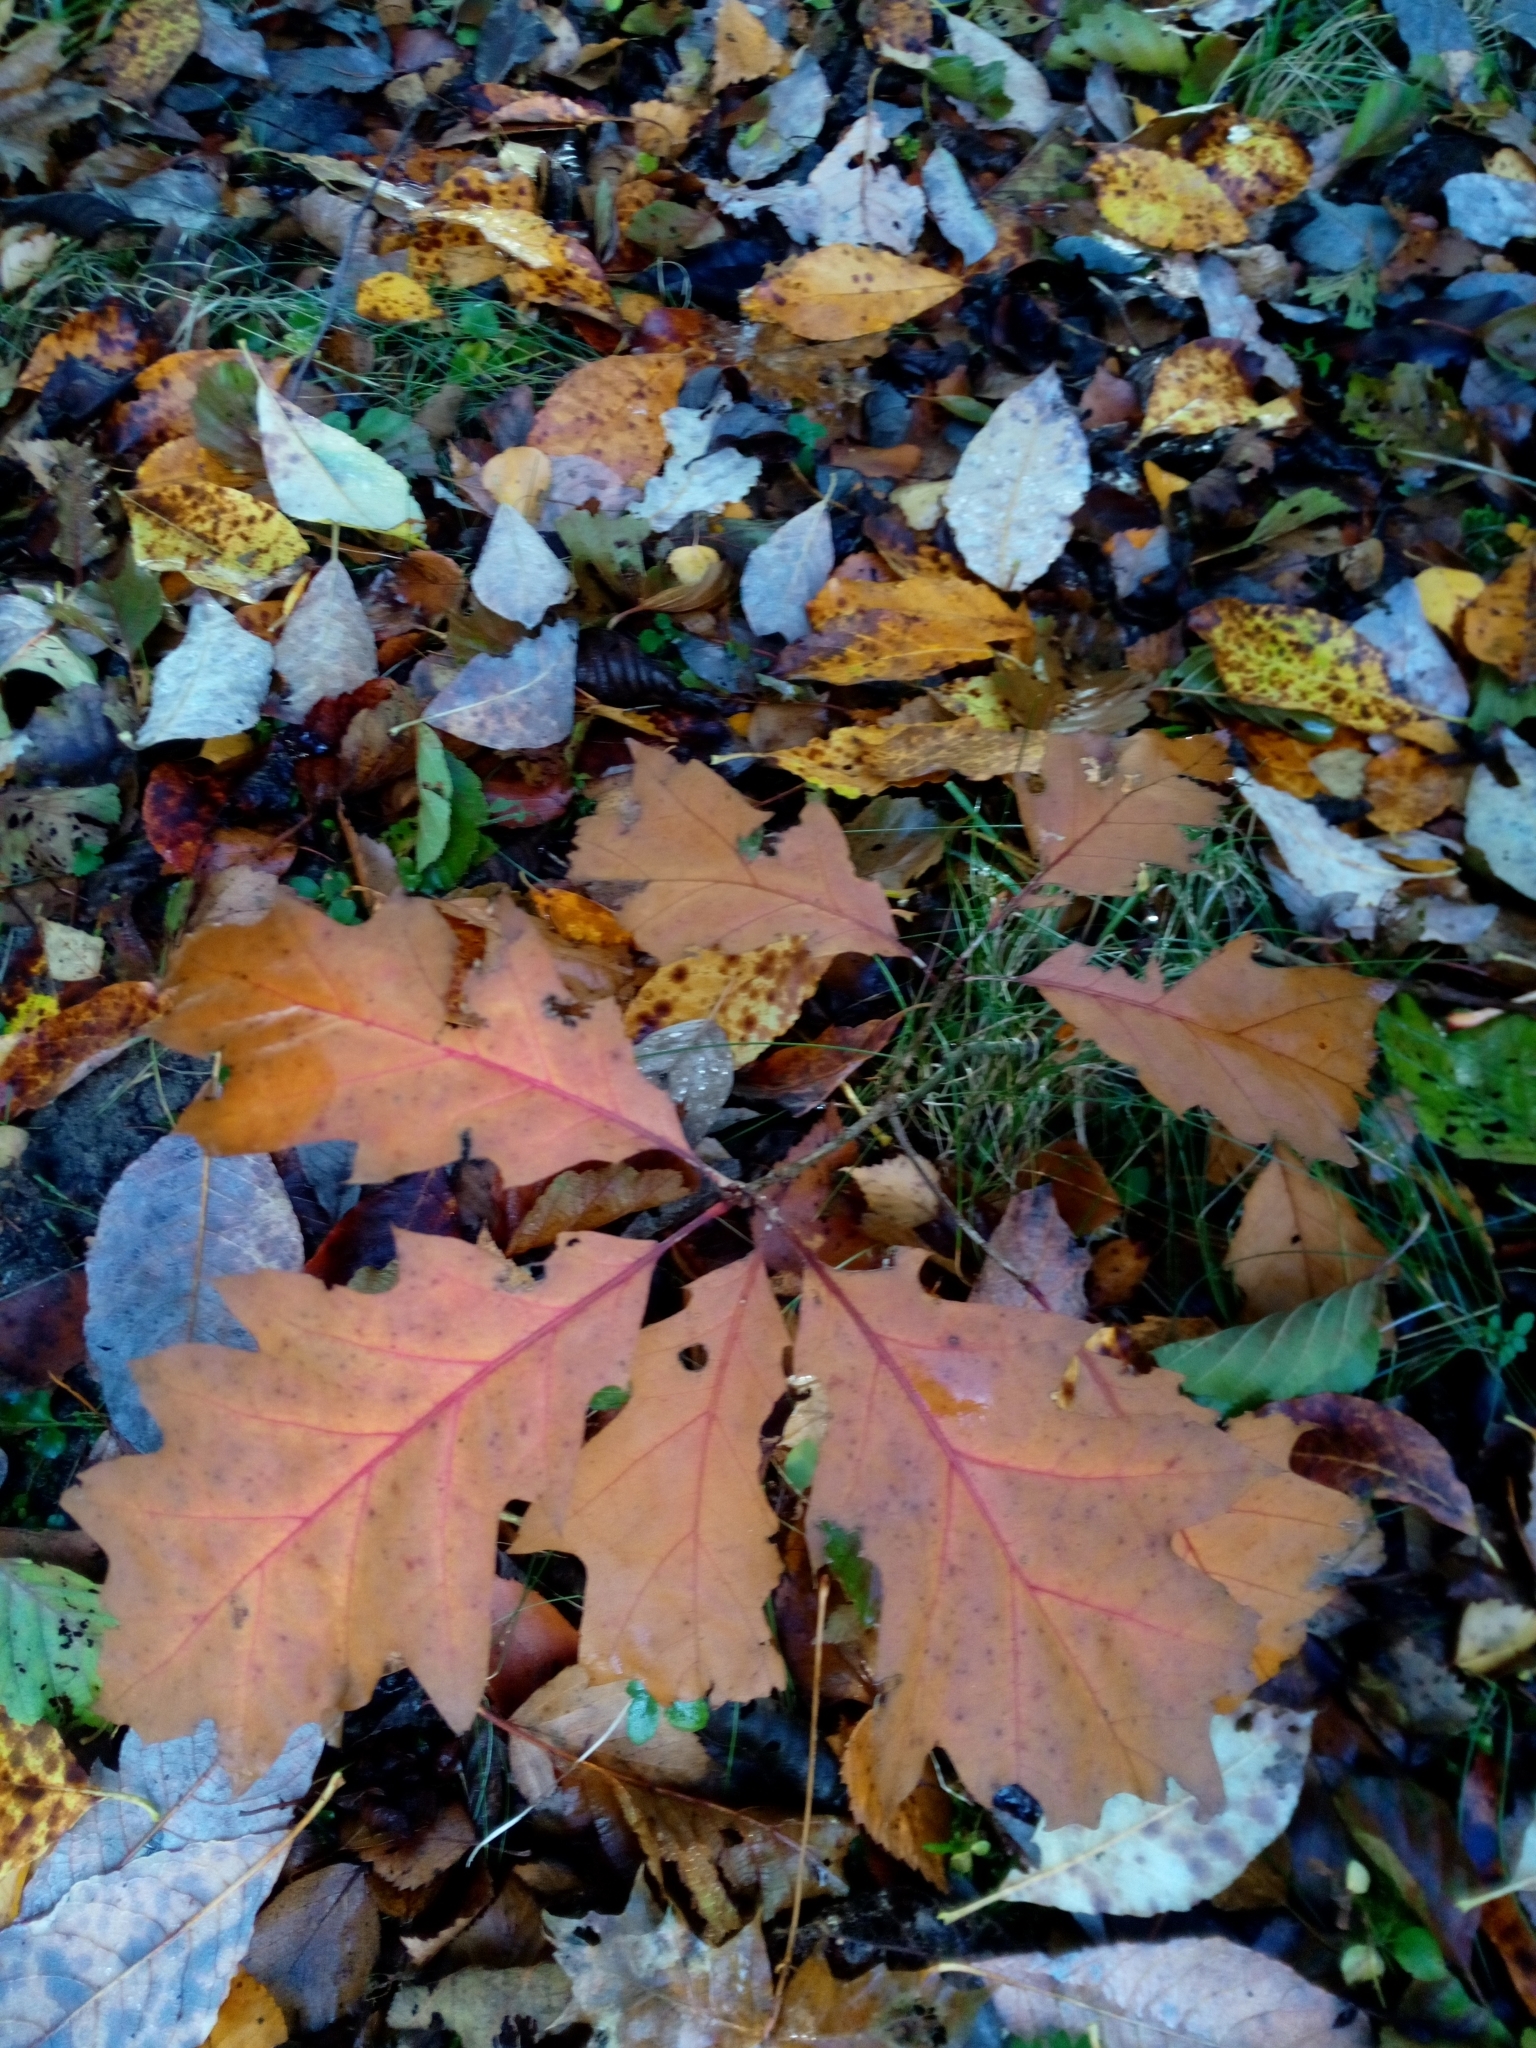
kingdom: Plantae
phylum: Tracheophyta
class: Magnoliopsida
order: Fagales
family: Fagaceae
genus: Quercus
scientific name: Quercus rubra
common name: Red oak
